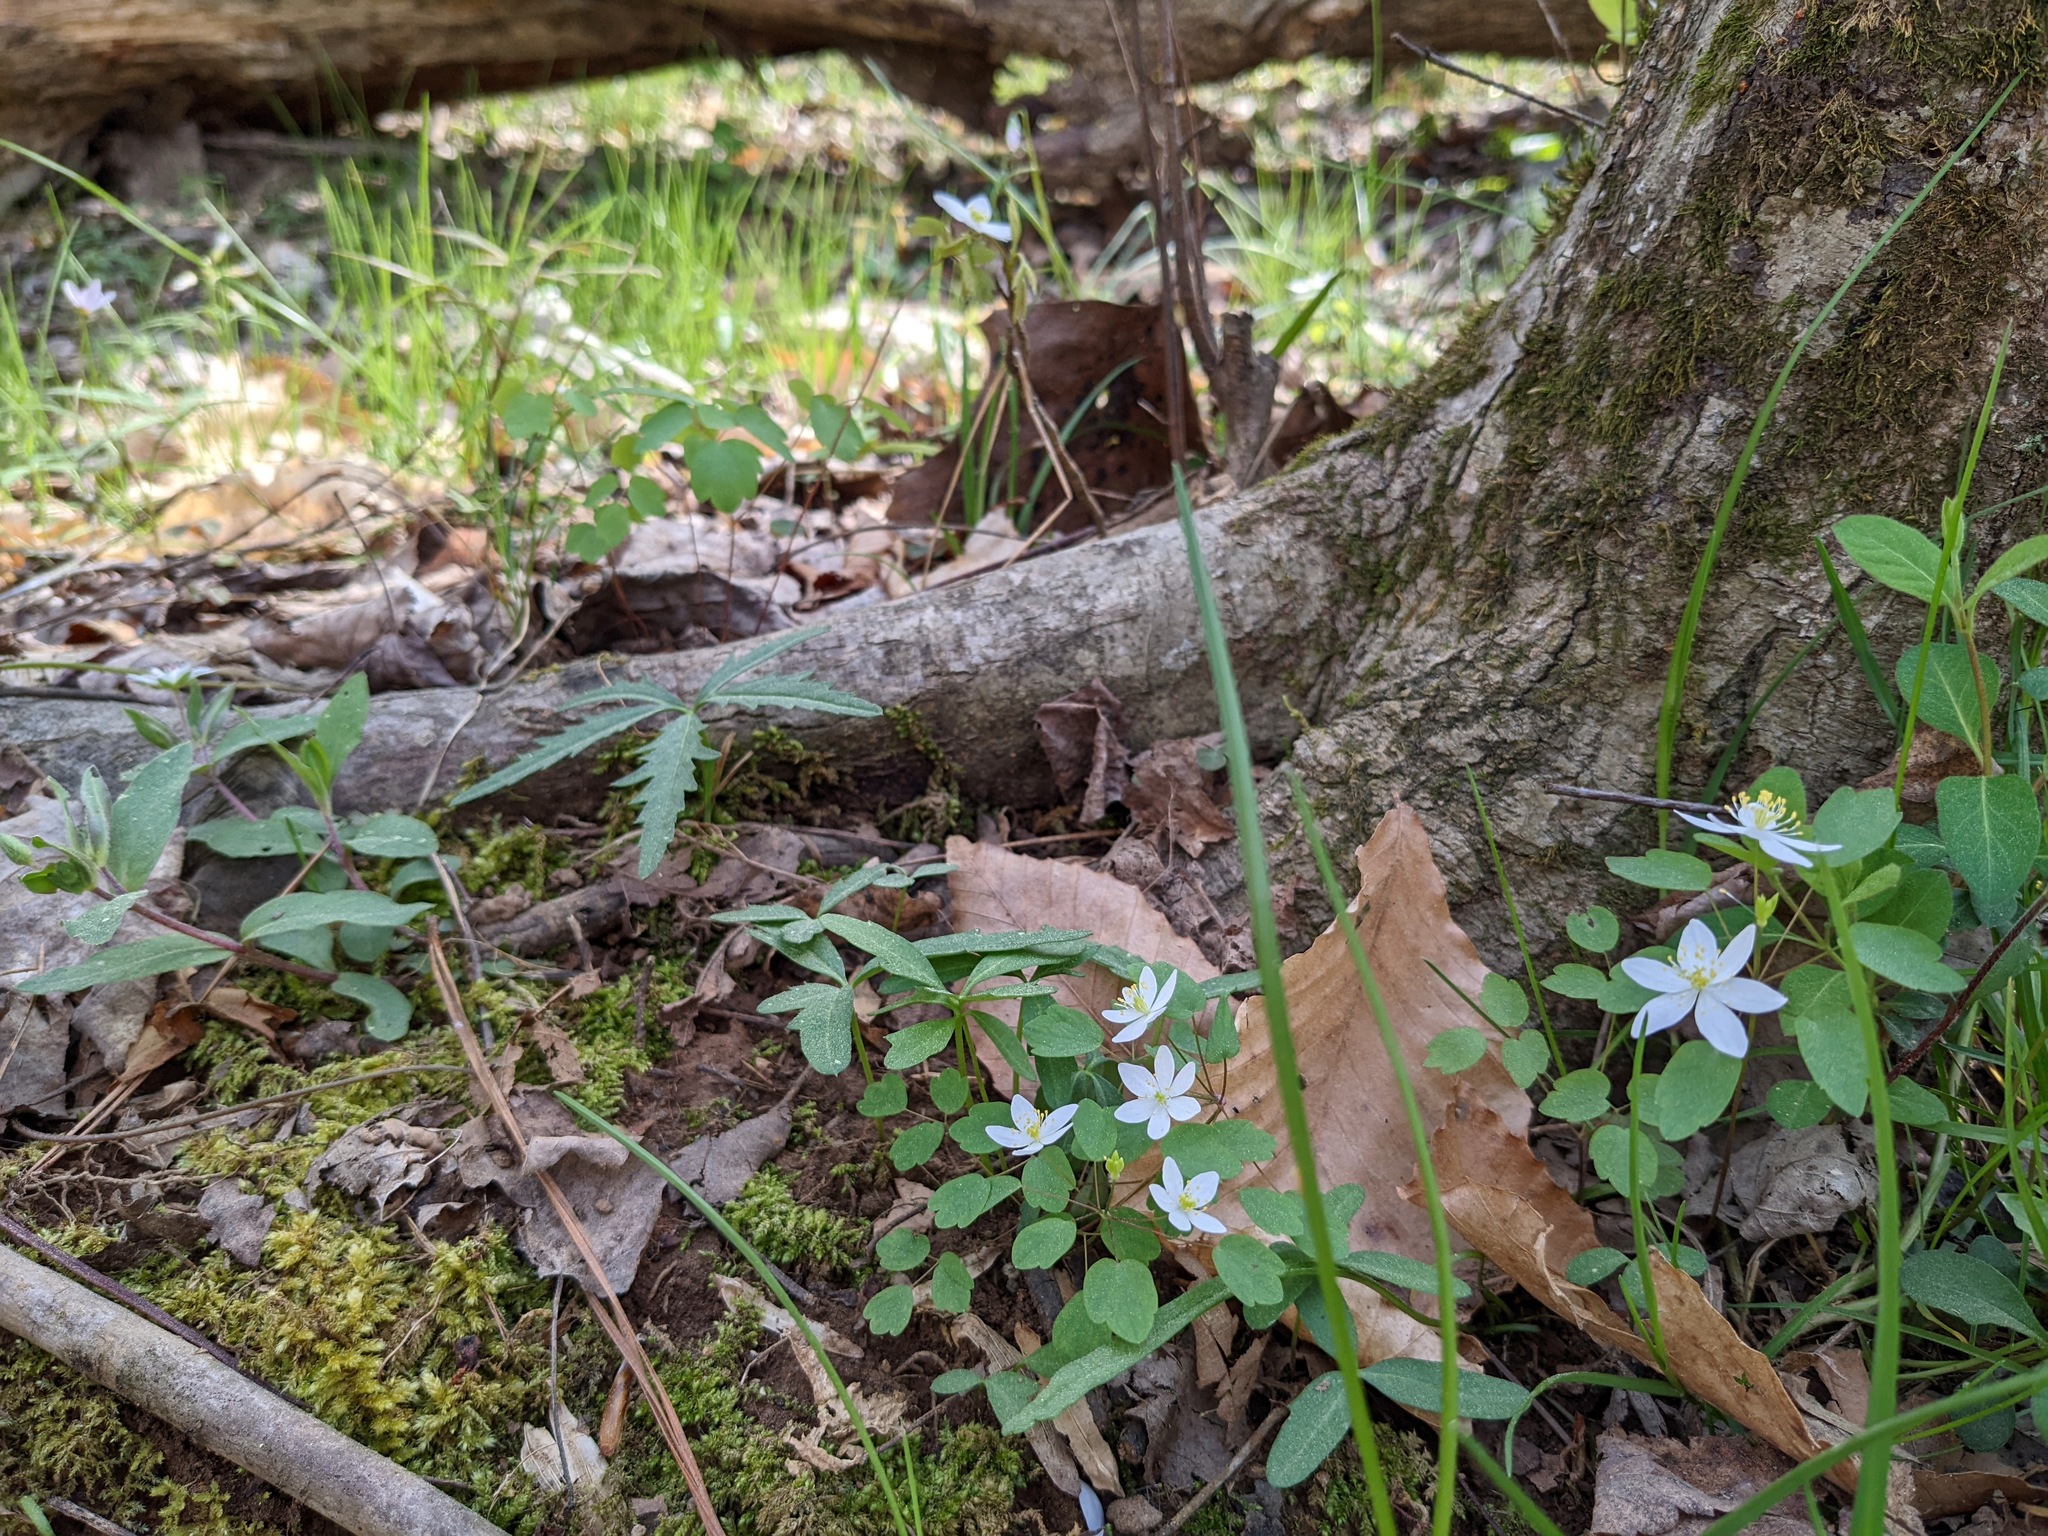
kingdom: Plantae
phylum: Tracheophyta
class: Magnoliopsida
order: Ranunculales
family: Ranunculaceae
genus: Thalictrum
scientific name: Thalictrum thalictroides
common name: Rue-anemone
